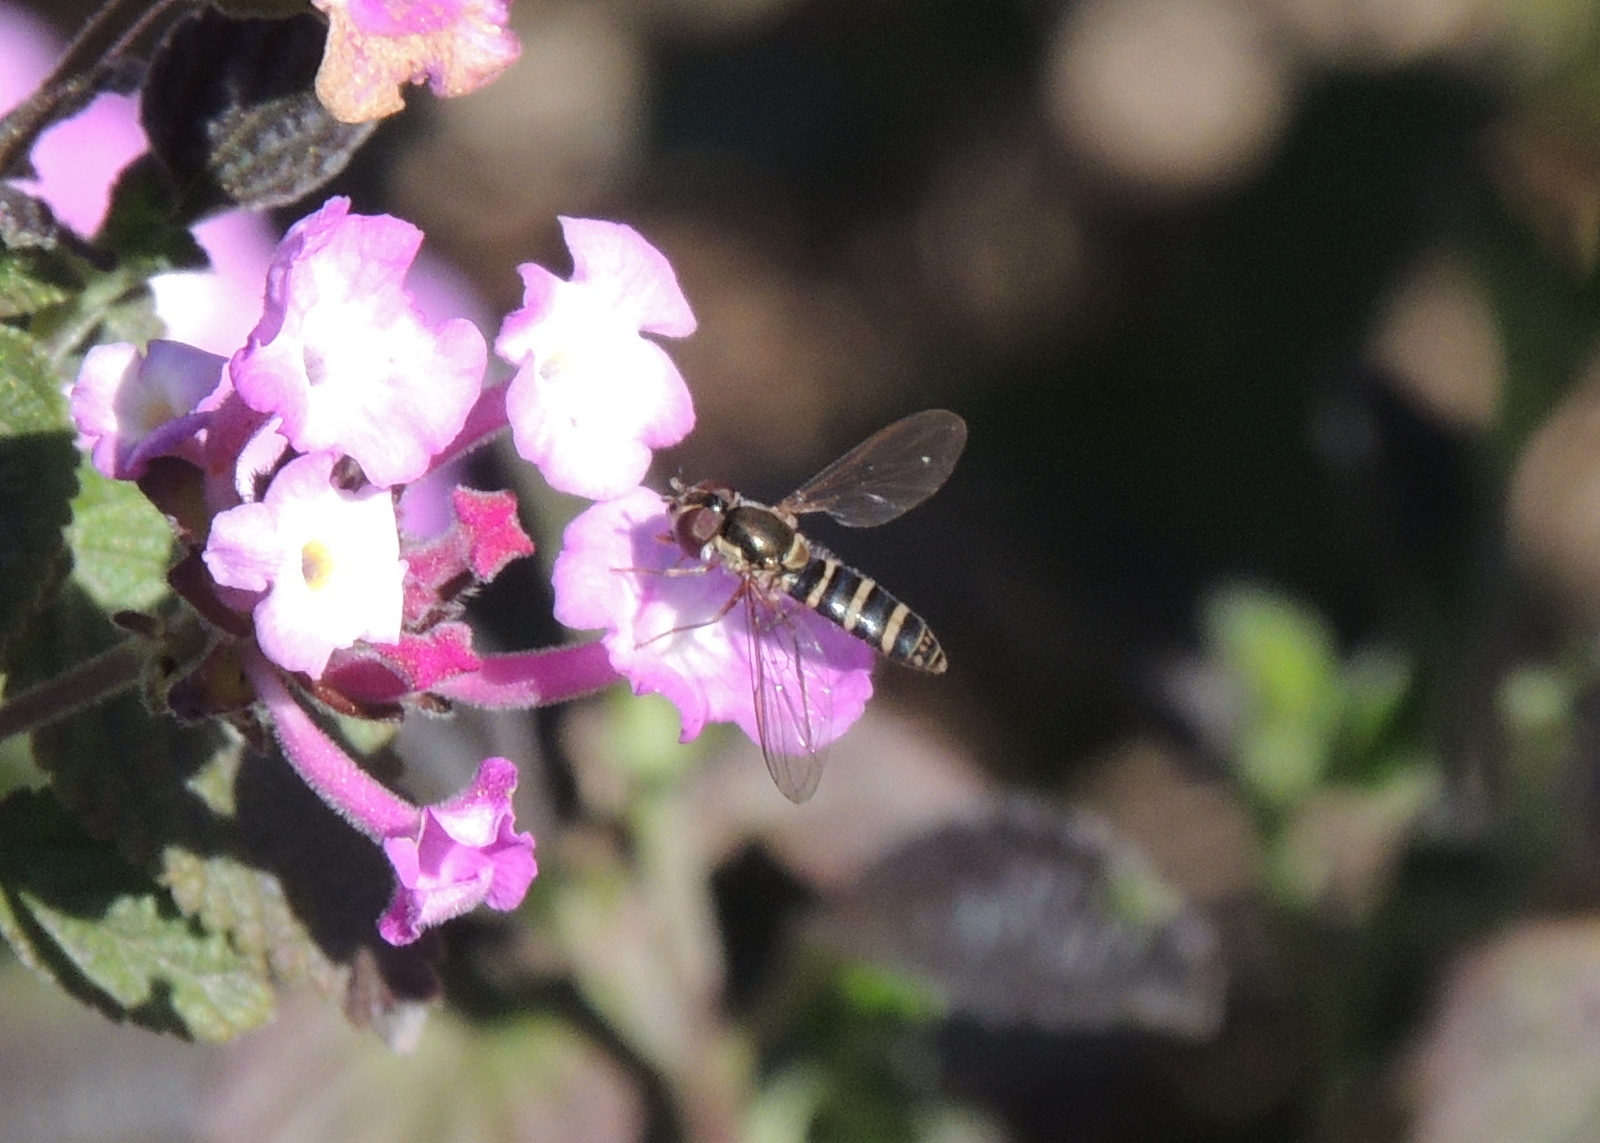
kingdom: Animalia
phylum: Arthropoda
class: Insecta
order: Diptera
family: Syrphidae
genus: Fazia
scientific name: Fazia micrura
